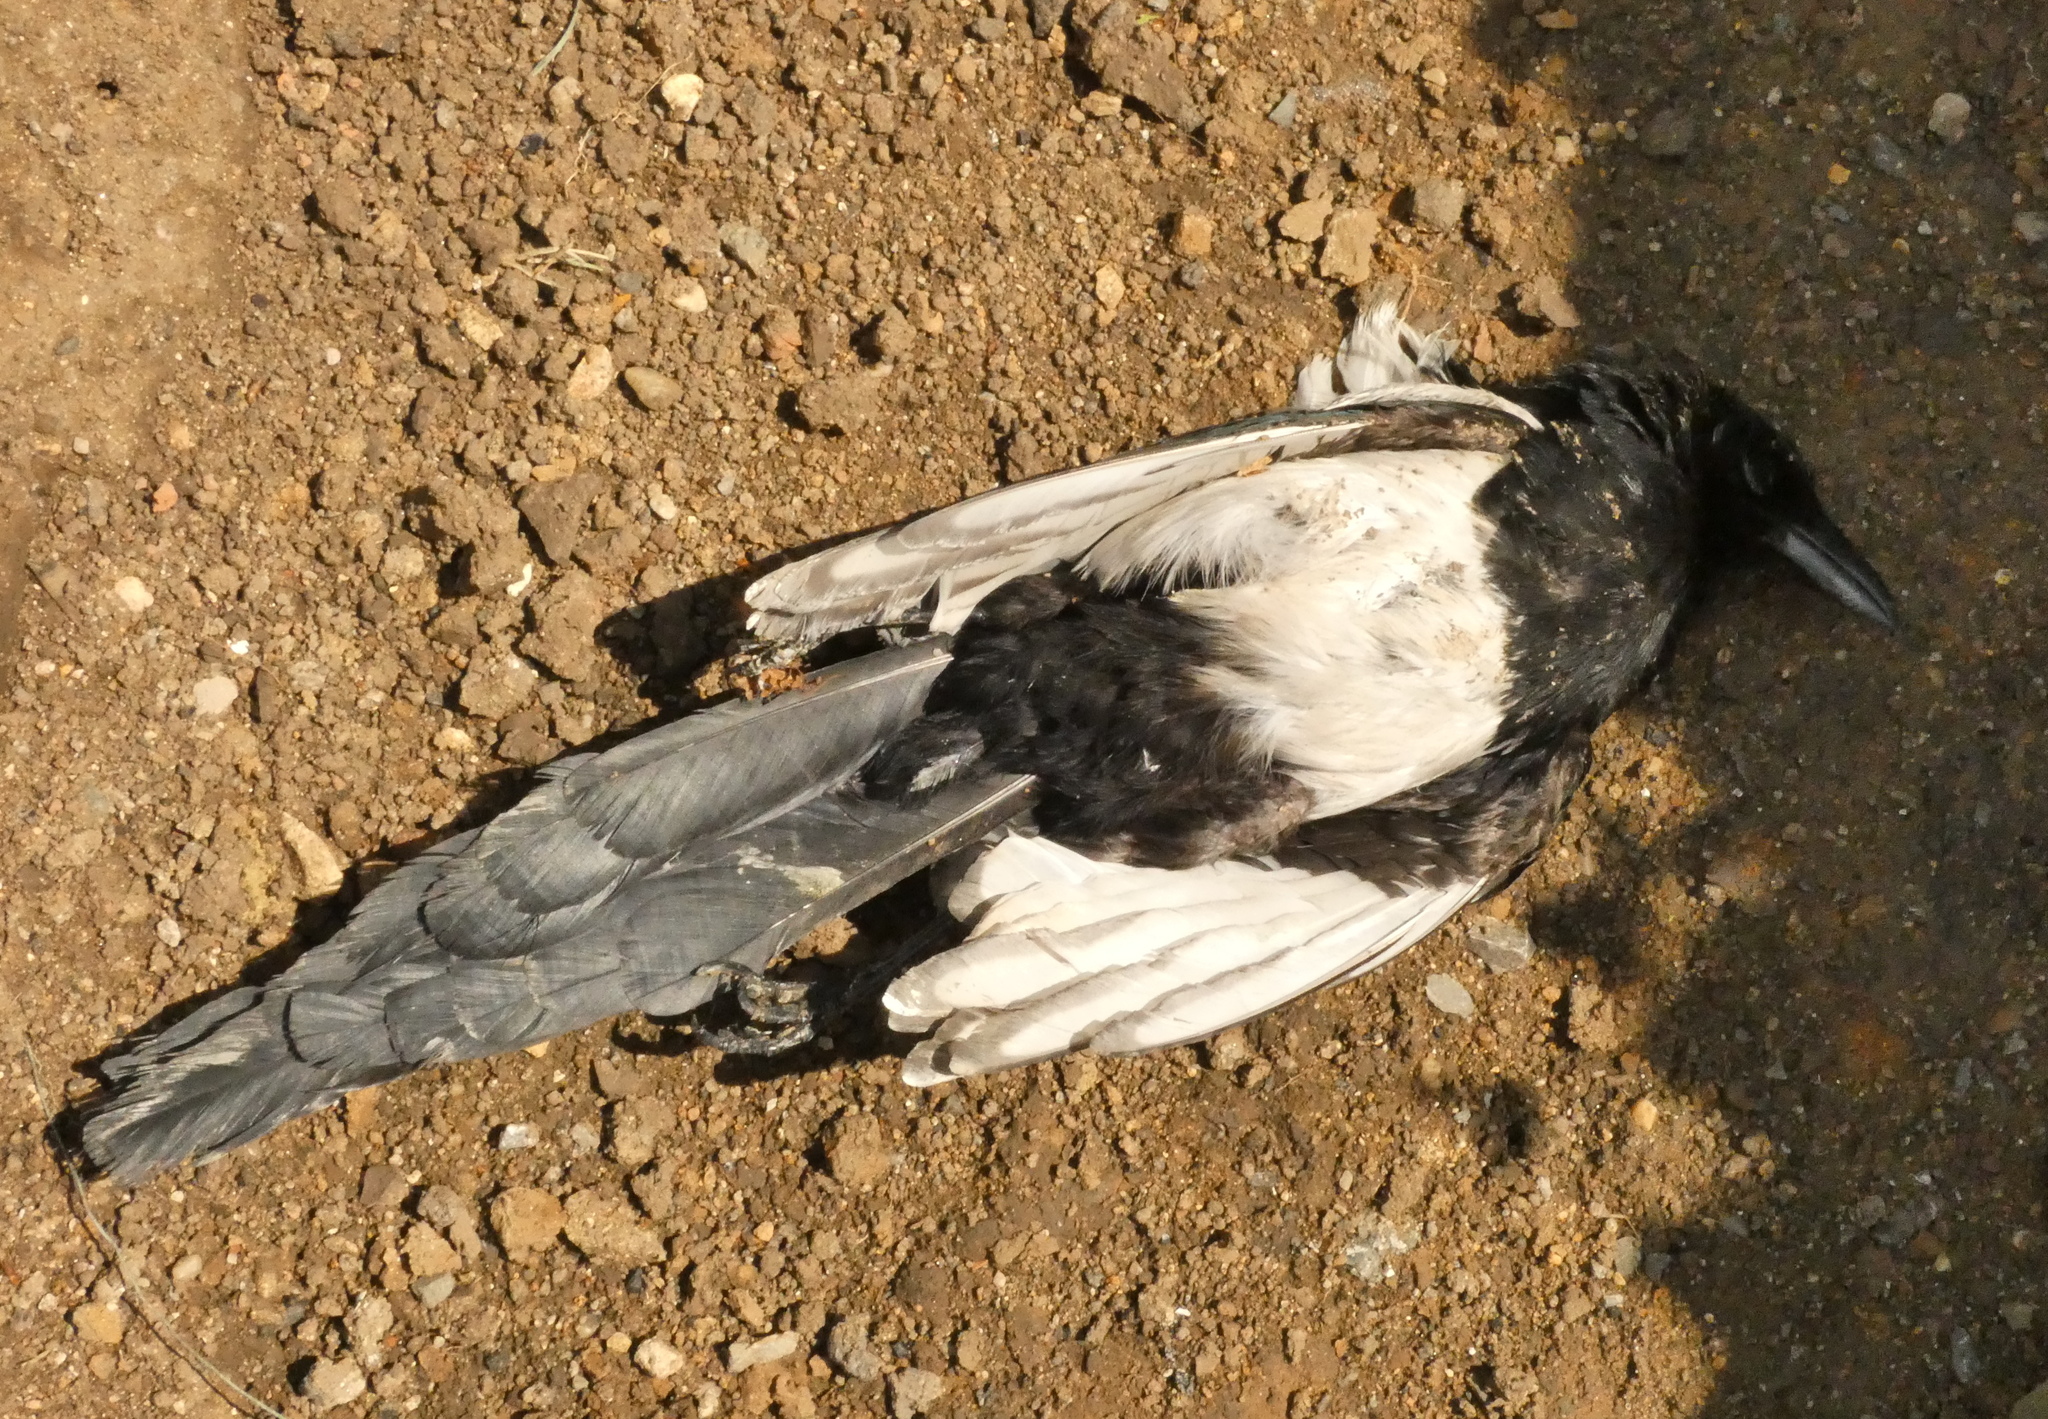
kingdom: Animalia
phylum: Chordata
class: Aves
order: Passeriformes
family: Corvidae
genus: Pica
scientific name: Pica pica
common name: Eurasian magpie
